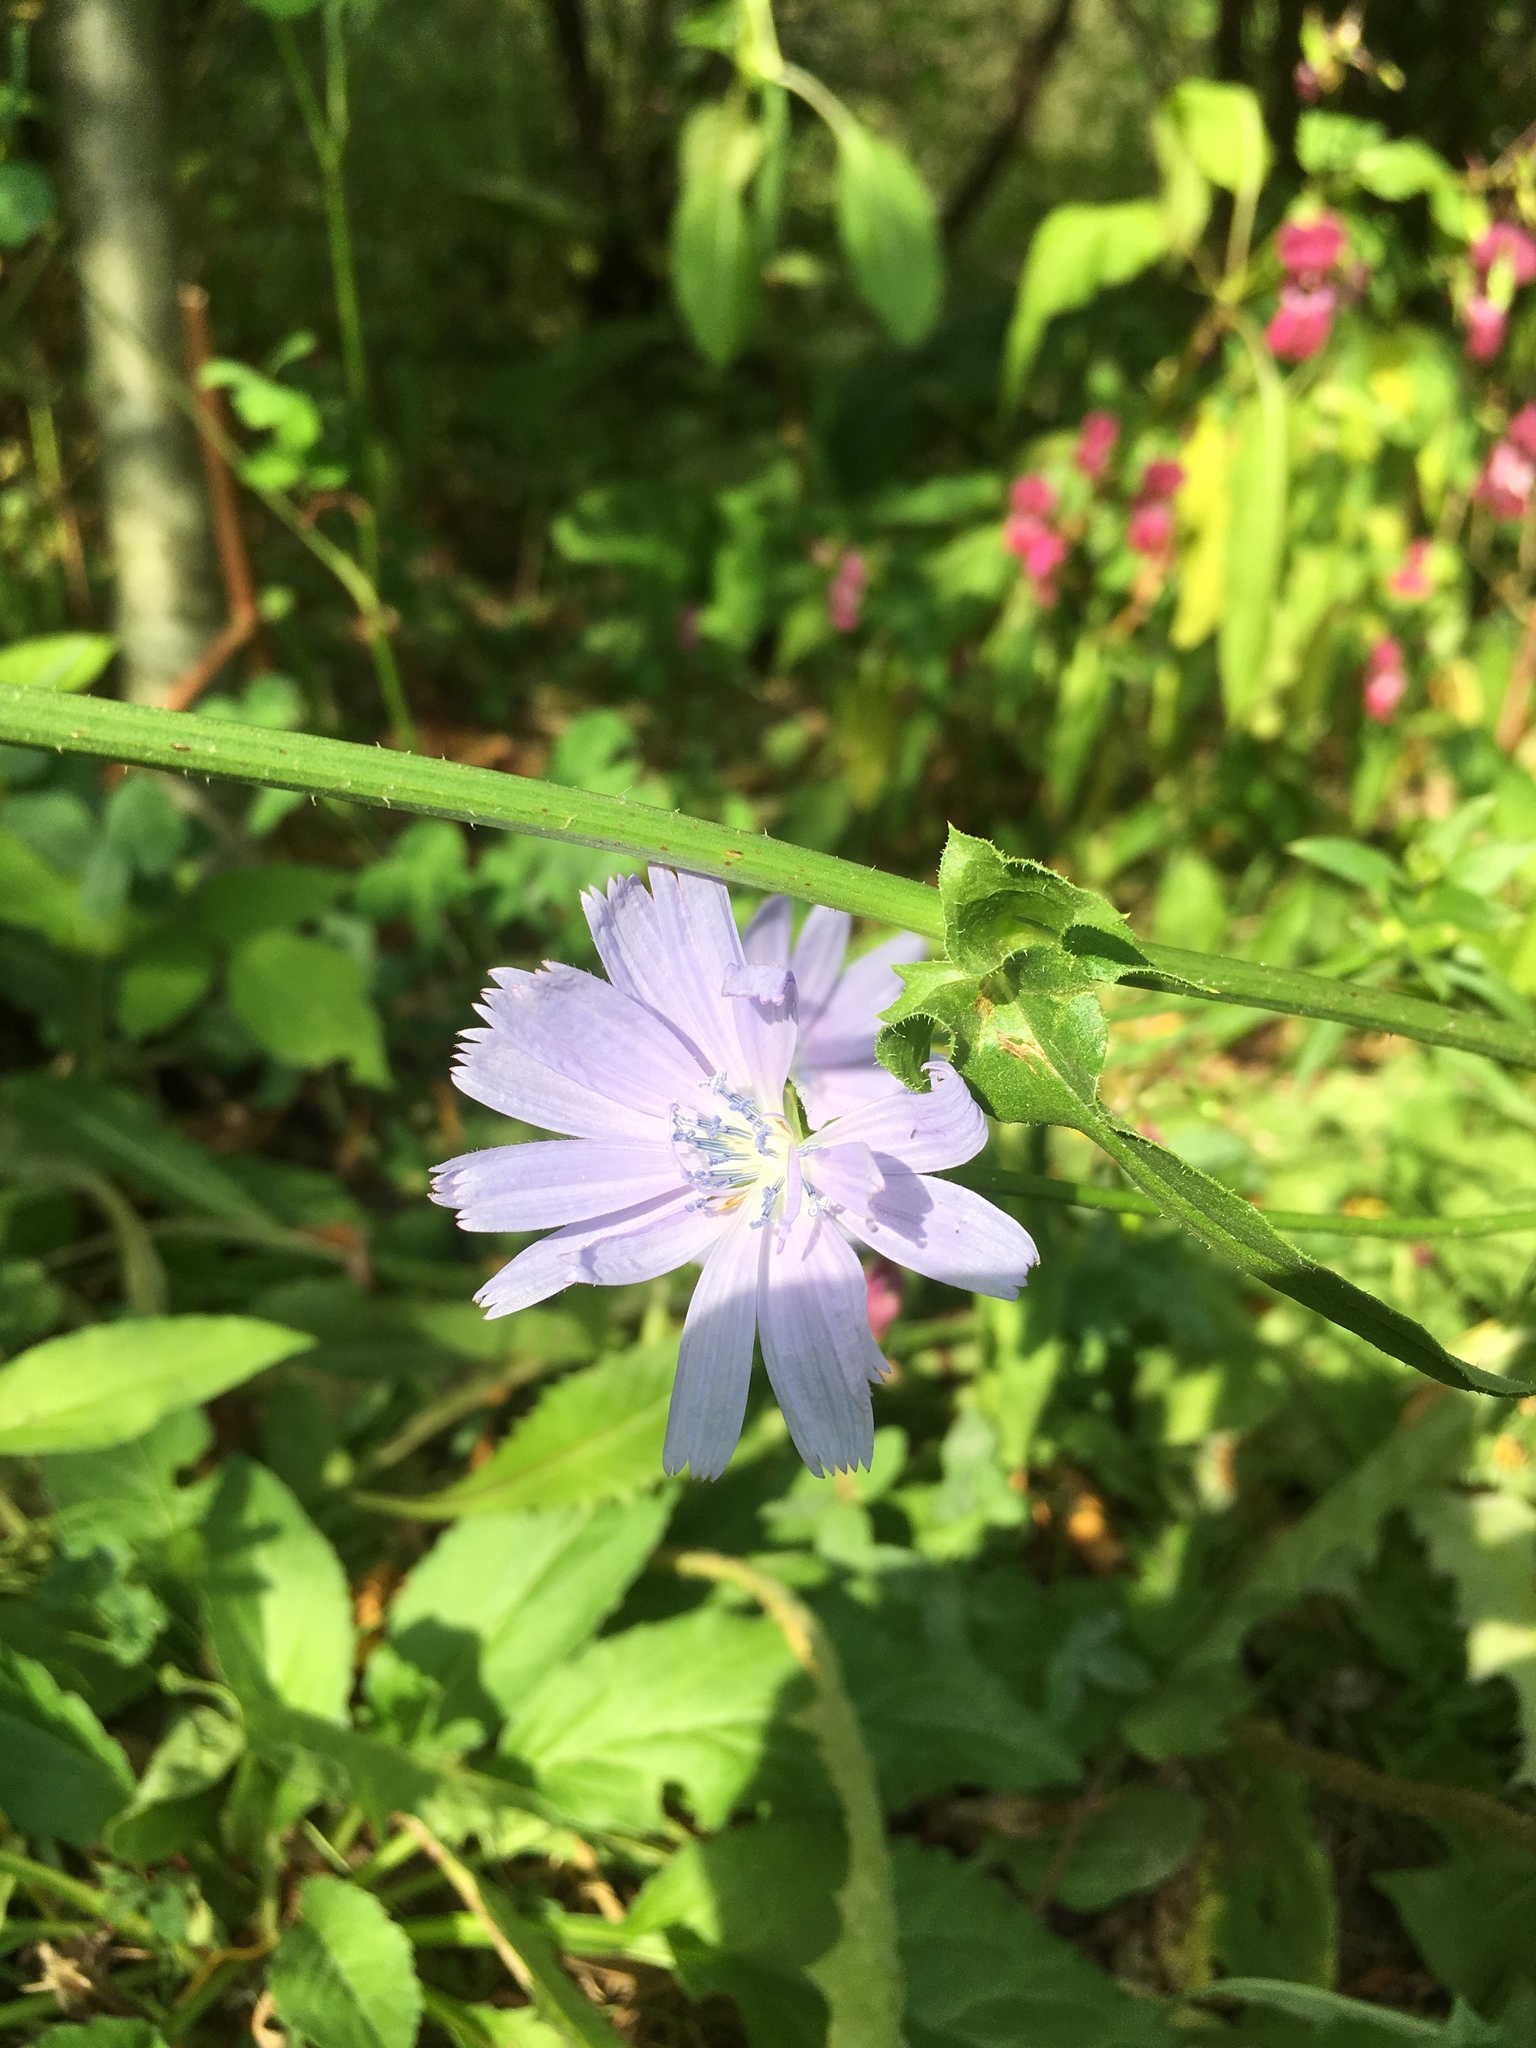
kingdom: Plantae
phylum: Tracheophyta
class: Magnoliopsida
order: Asterales
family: Asteraceae
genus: Cichorium
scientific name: Cichorium intybus
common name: Chicory
